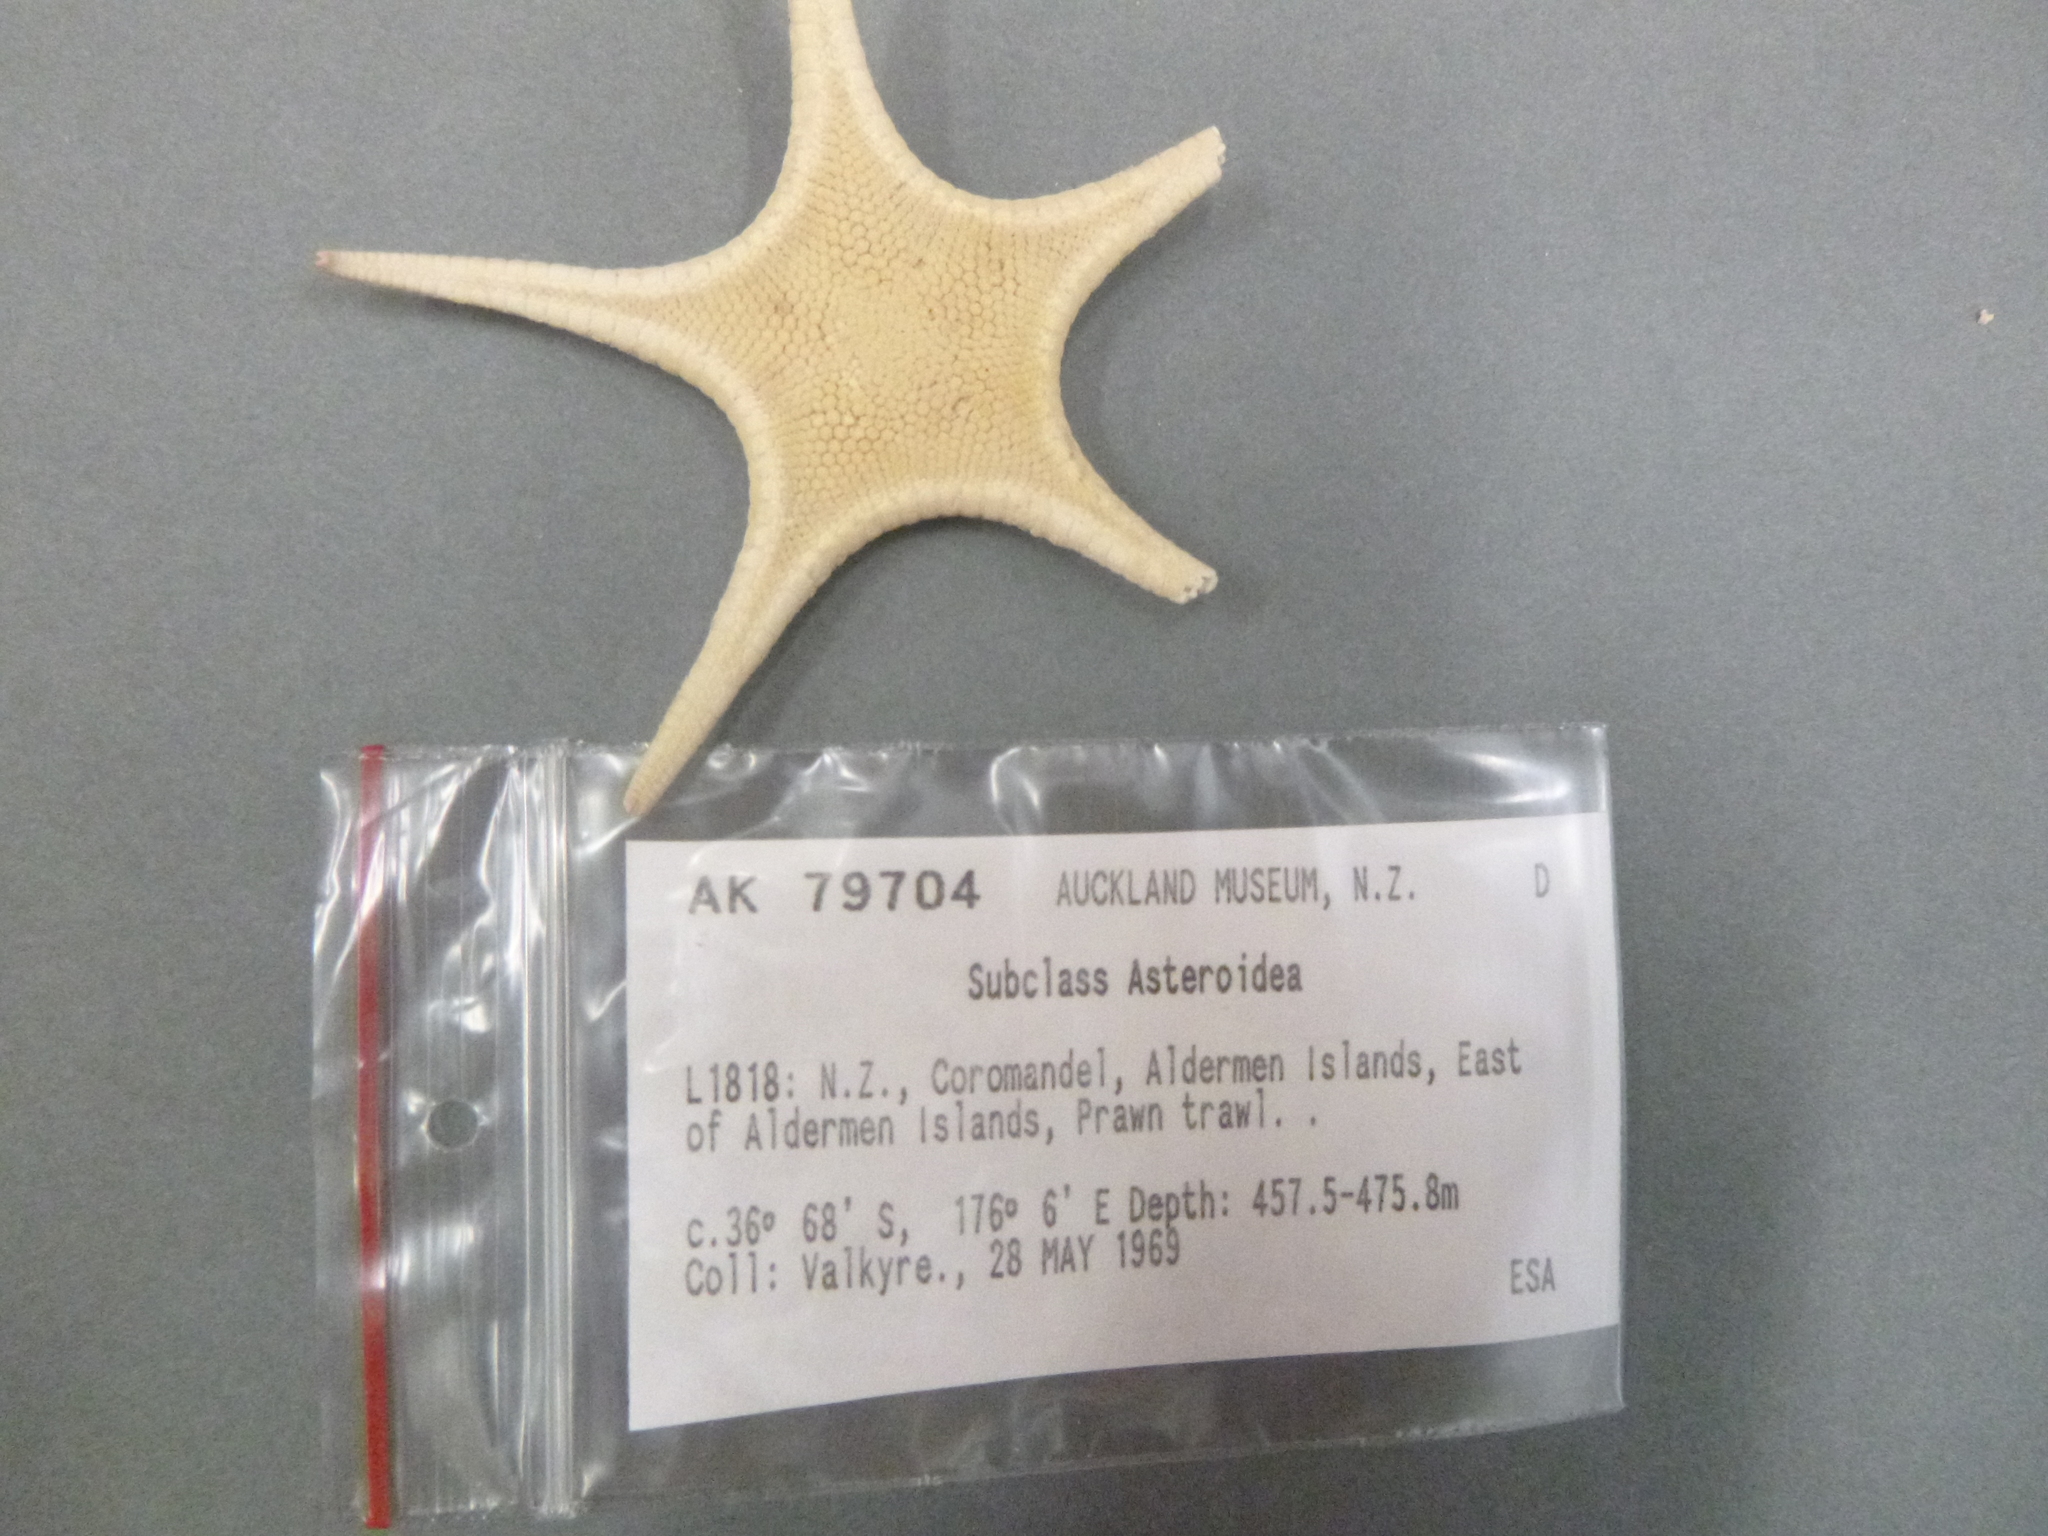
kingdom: Animalia
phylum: Echinodermata
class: Asteroidea
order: Paxillosida
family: Pseudarchasteridae
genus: Pseudarchaster
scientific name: Pseudarchaster garricki
